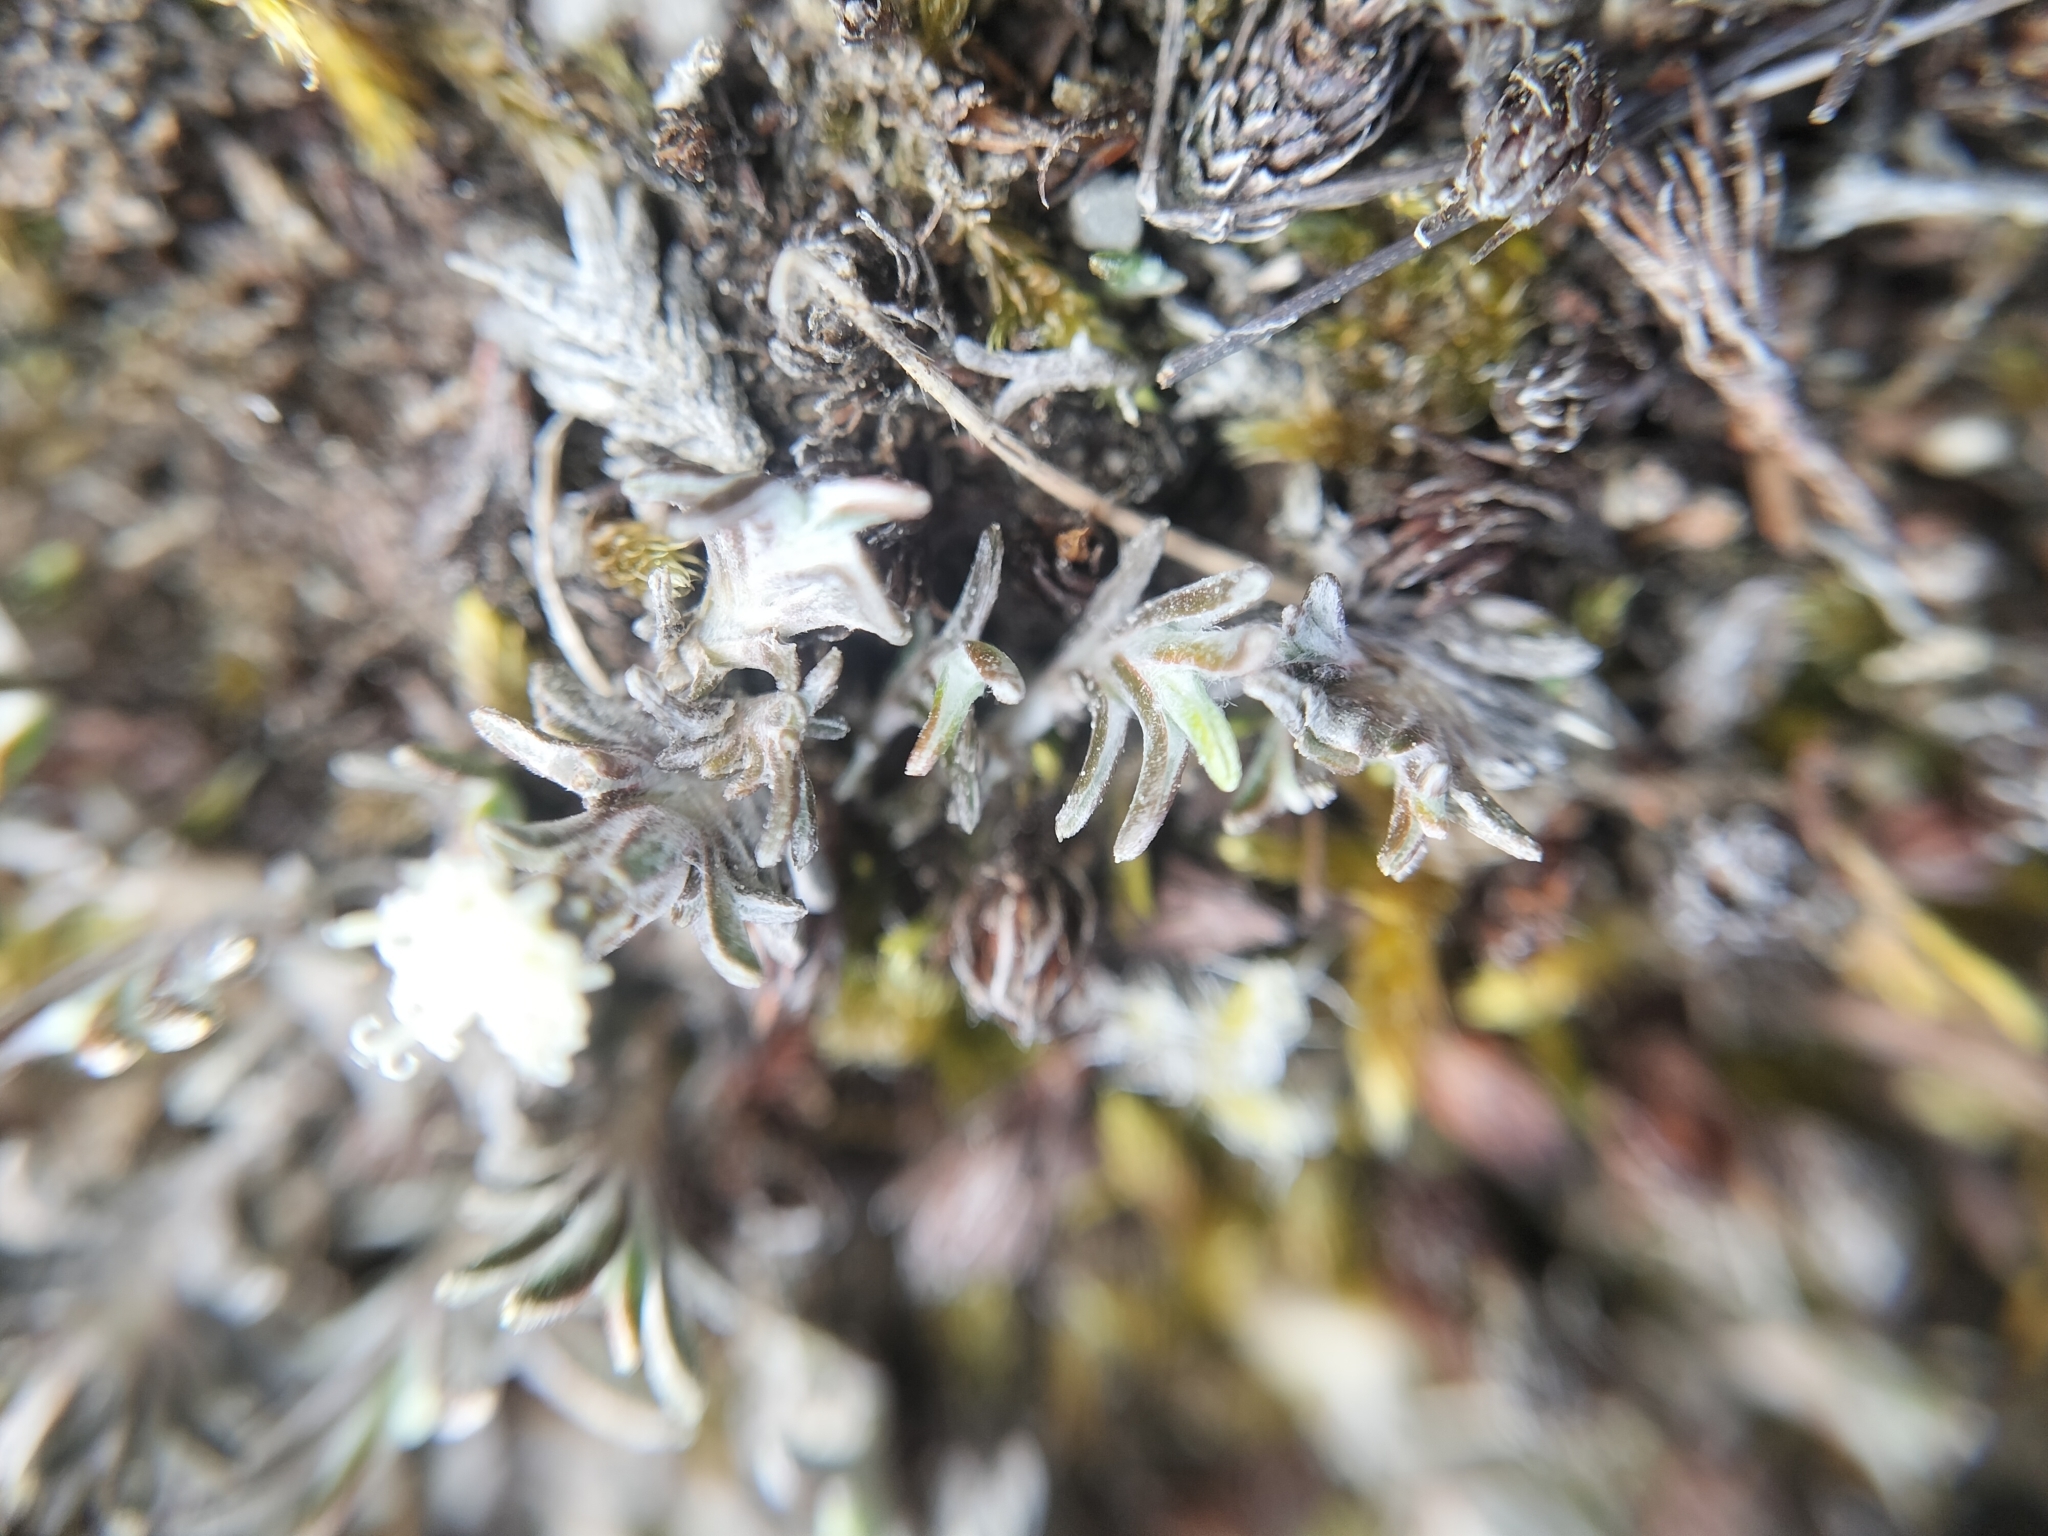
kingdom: Plantae
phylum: Tracheophyta
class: Magnoliopsida
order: Asterales
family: Asteraceae
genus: Raoulia
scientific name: Raoulia monroi
